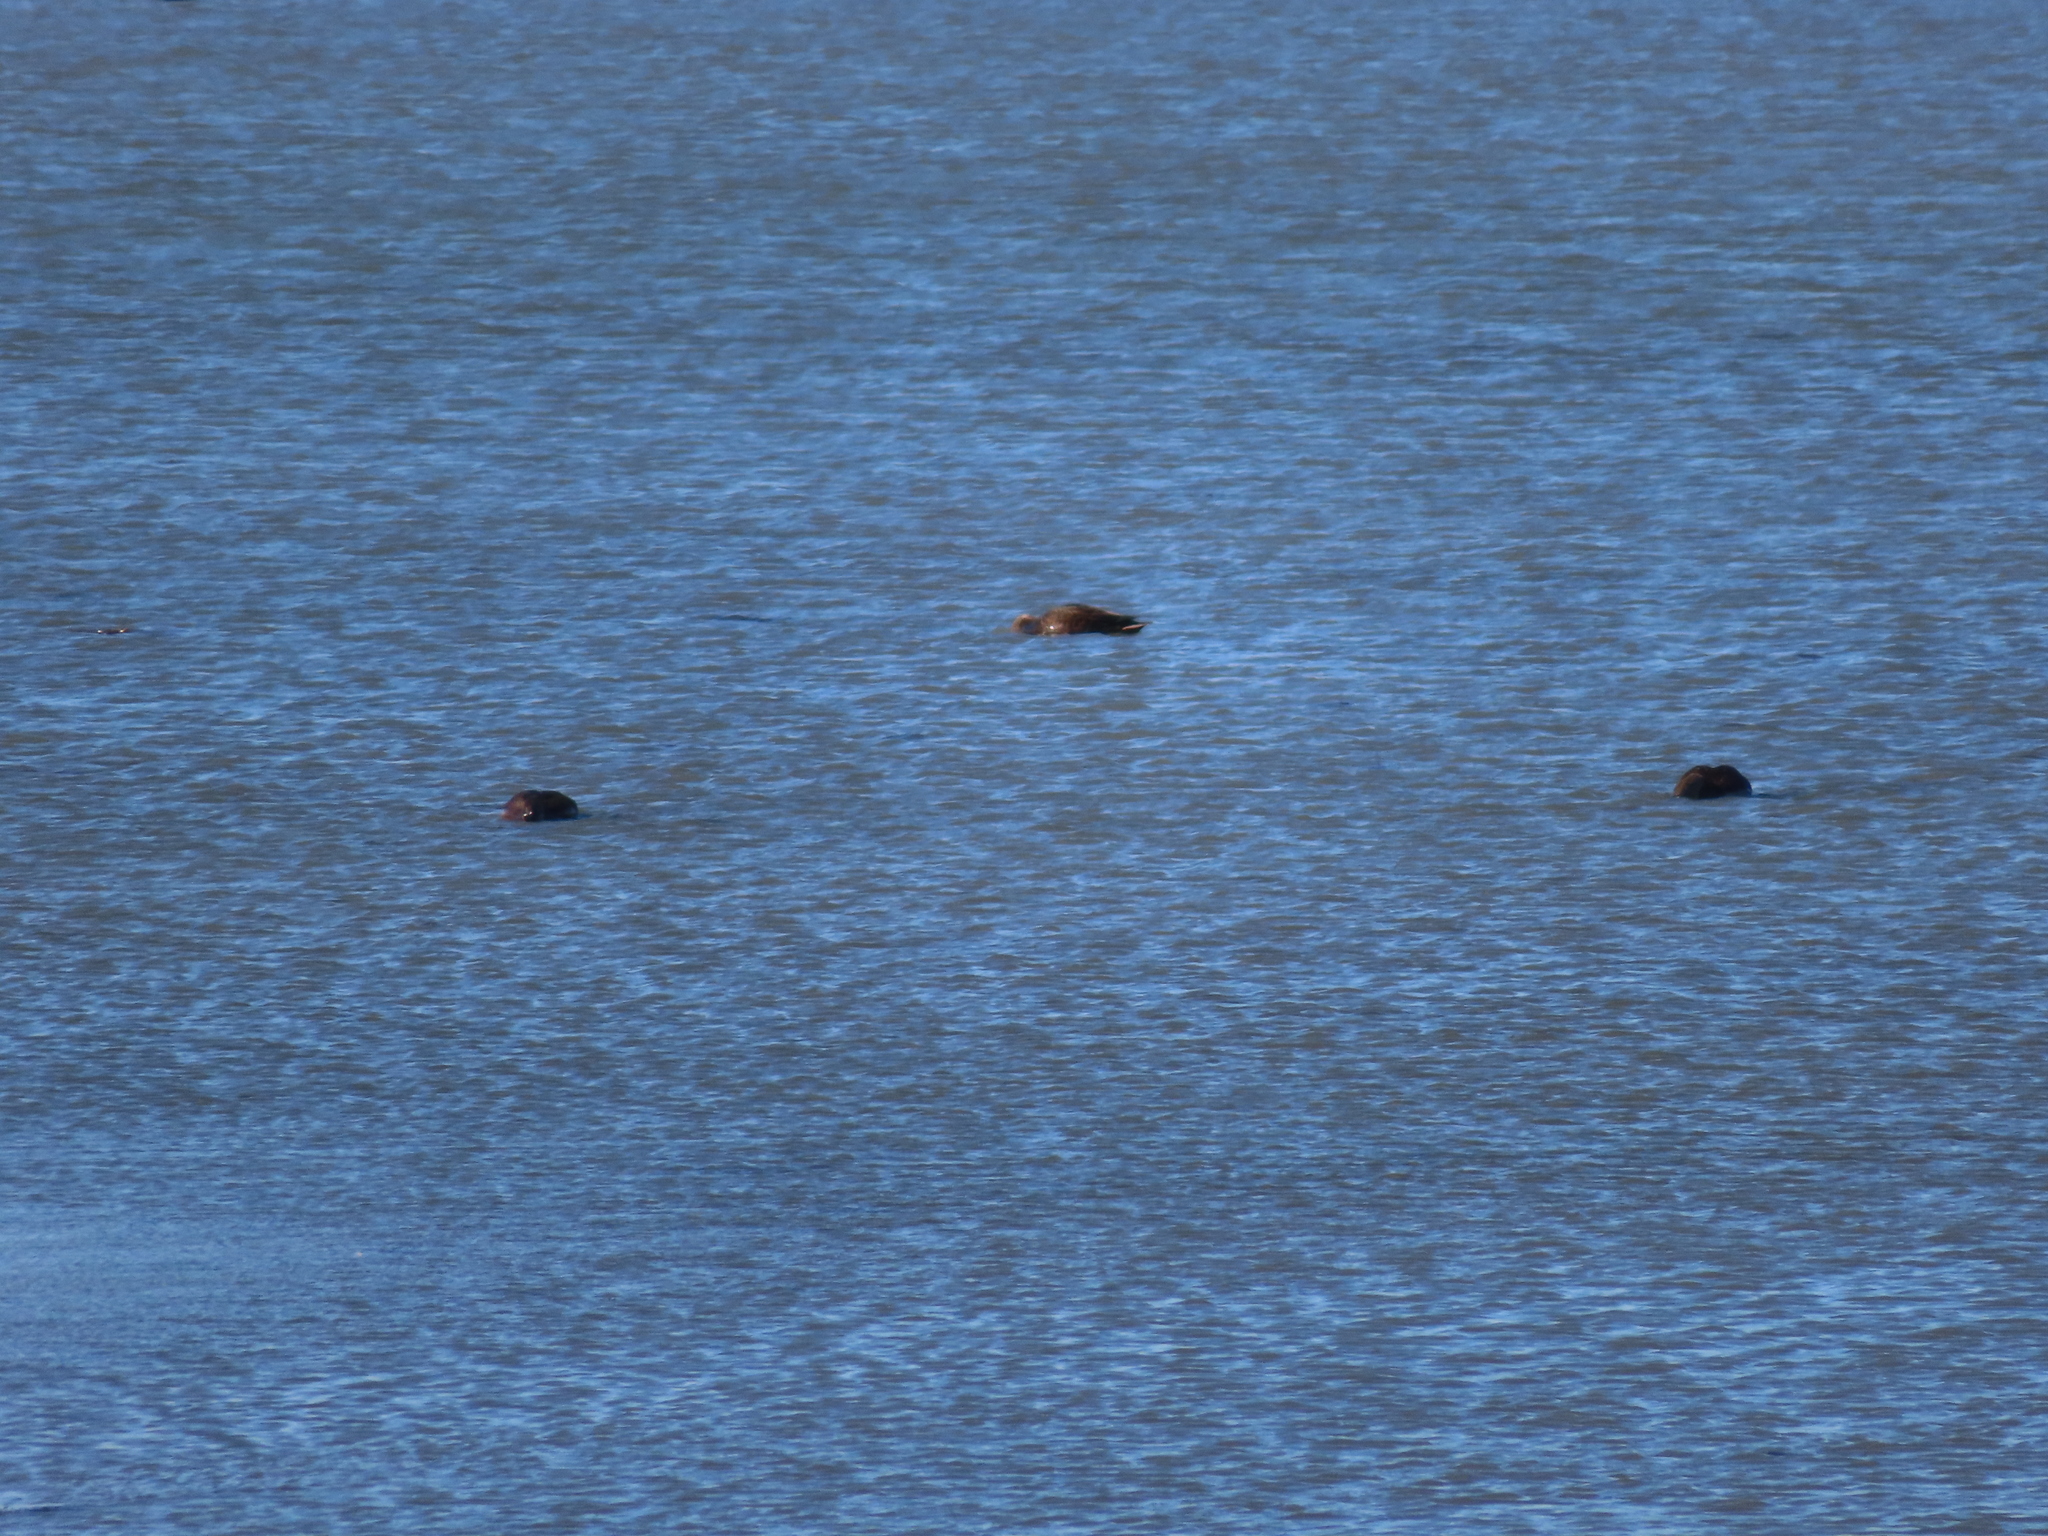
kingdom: Animalia
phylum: Chordata
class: Aves
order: Anseriformes
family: Anatidae
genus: Anas
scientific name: Anas rubripes
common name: American black duck
